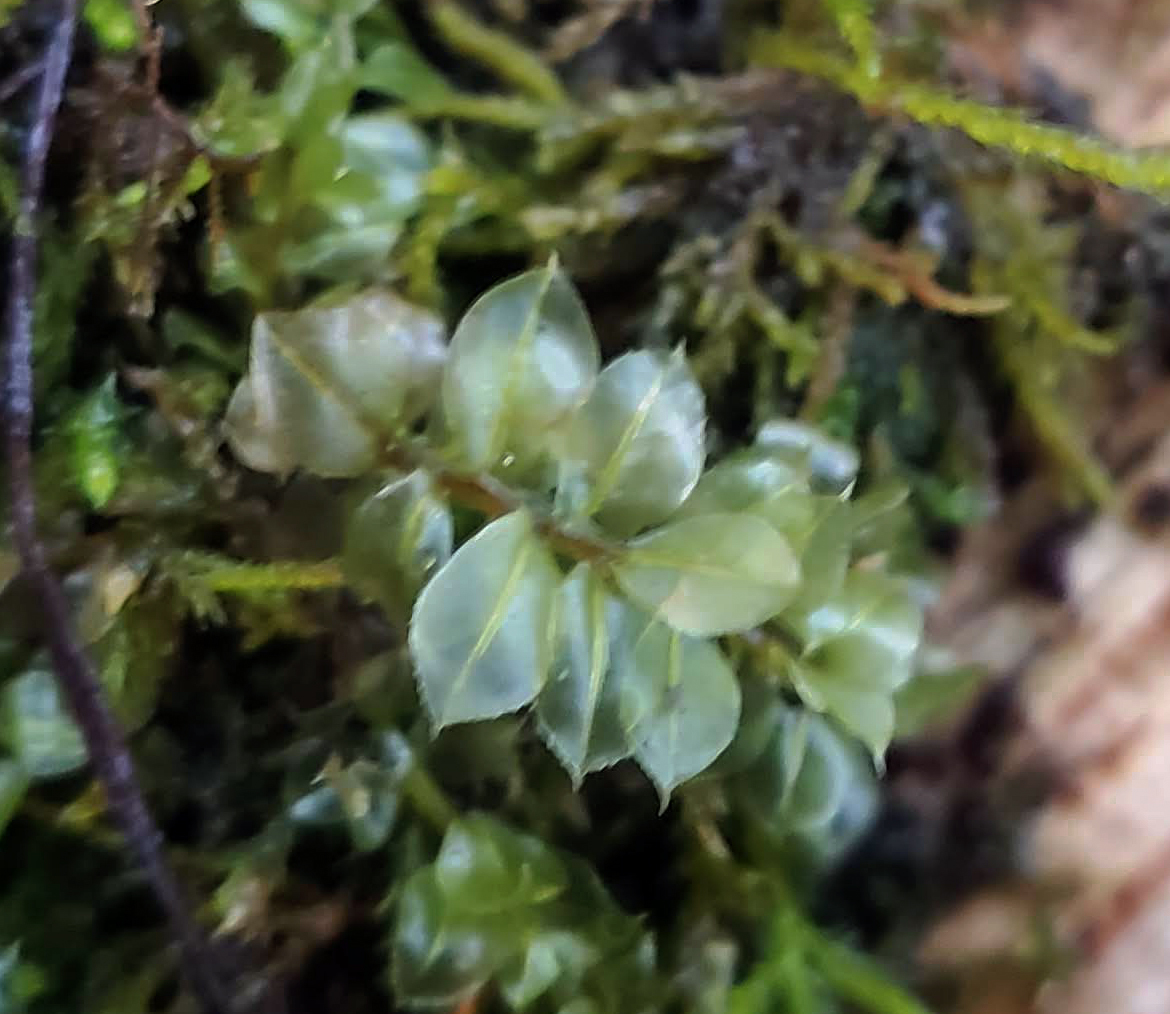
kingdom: Plantae
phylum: Bryophyta
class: Bryopsida
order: Bryales
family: Mniaceae
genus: Plagiomnium
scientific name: Plagiomnium cuspidatum
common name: Woodsy leafy moss
